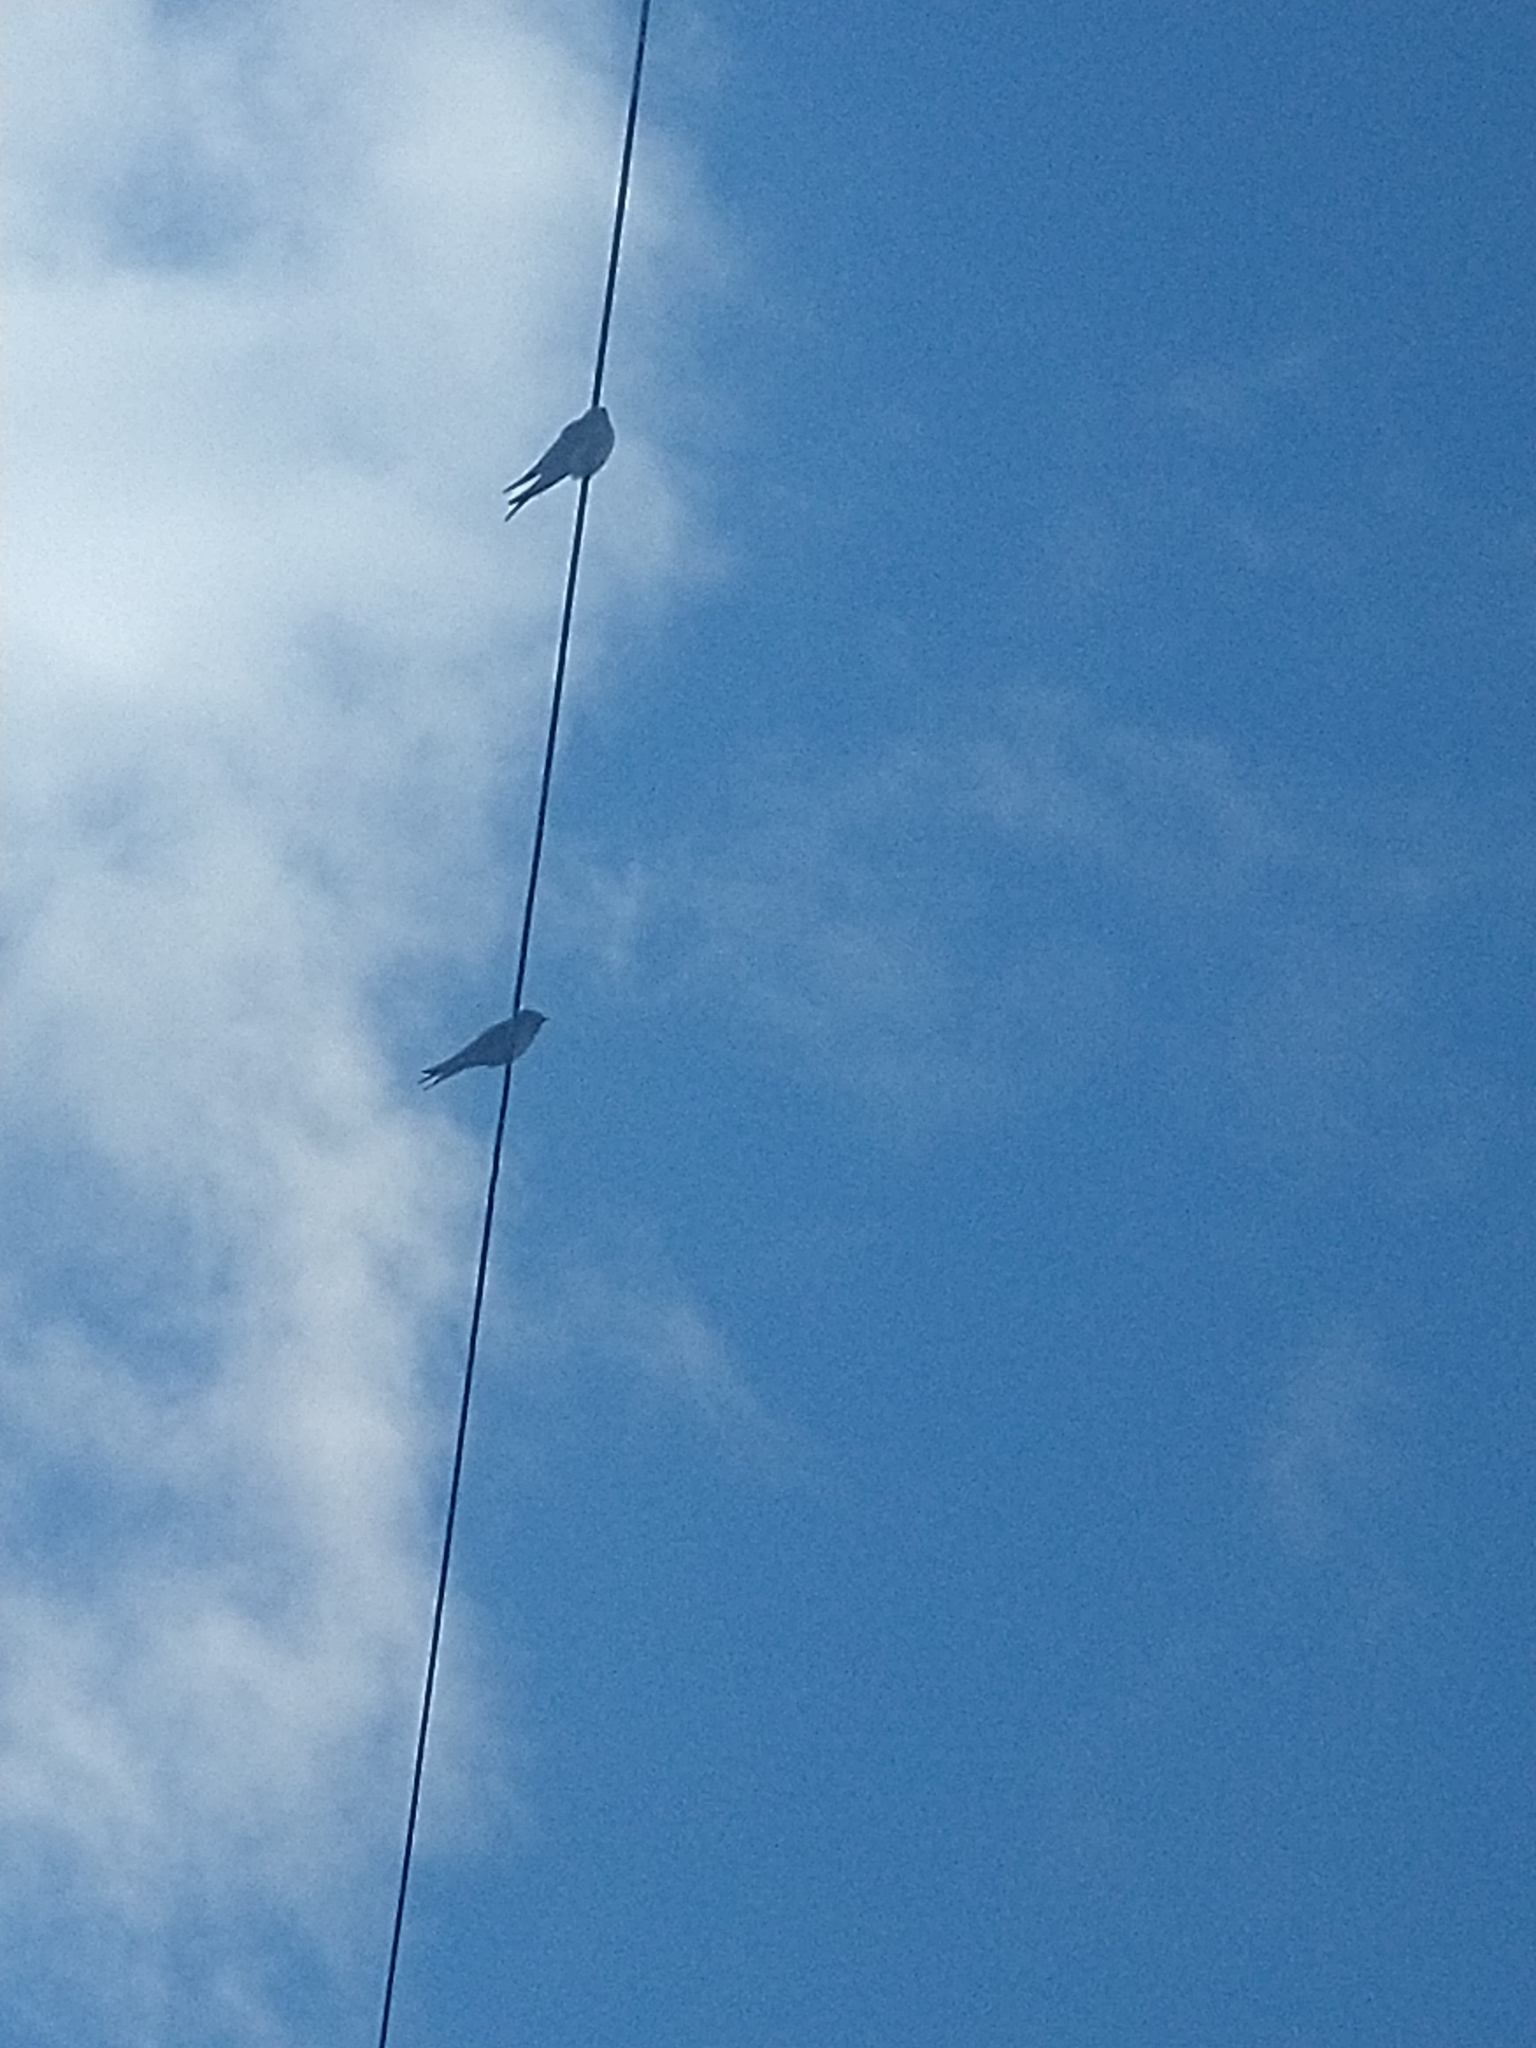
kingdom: Animalia
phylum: Chordata
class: Aves
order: Passeriformes
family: Hirundinidae
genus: Hirundo
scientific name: Hirundo neoxena
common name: Welcome swallow
